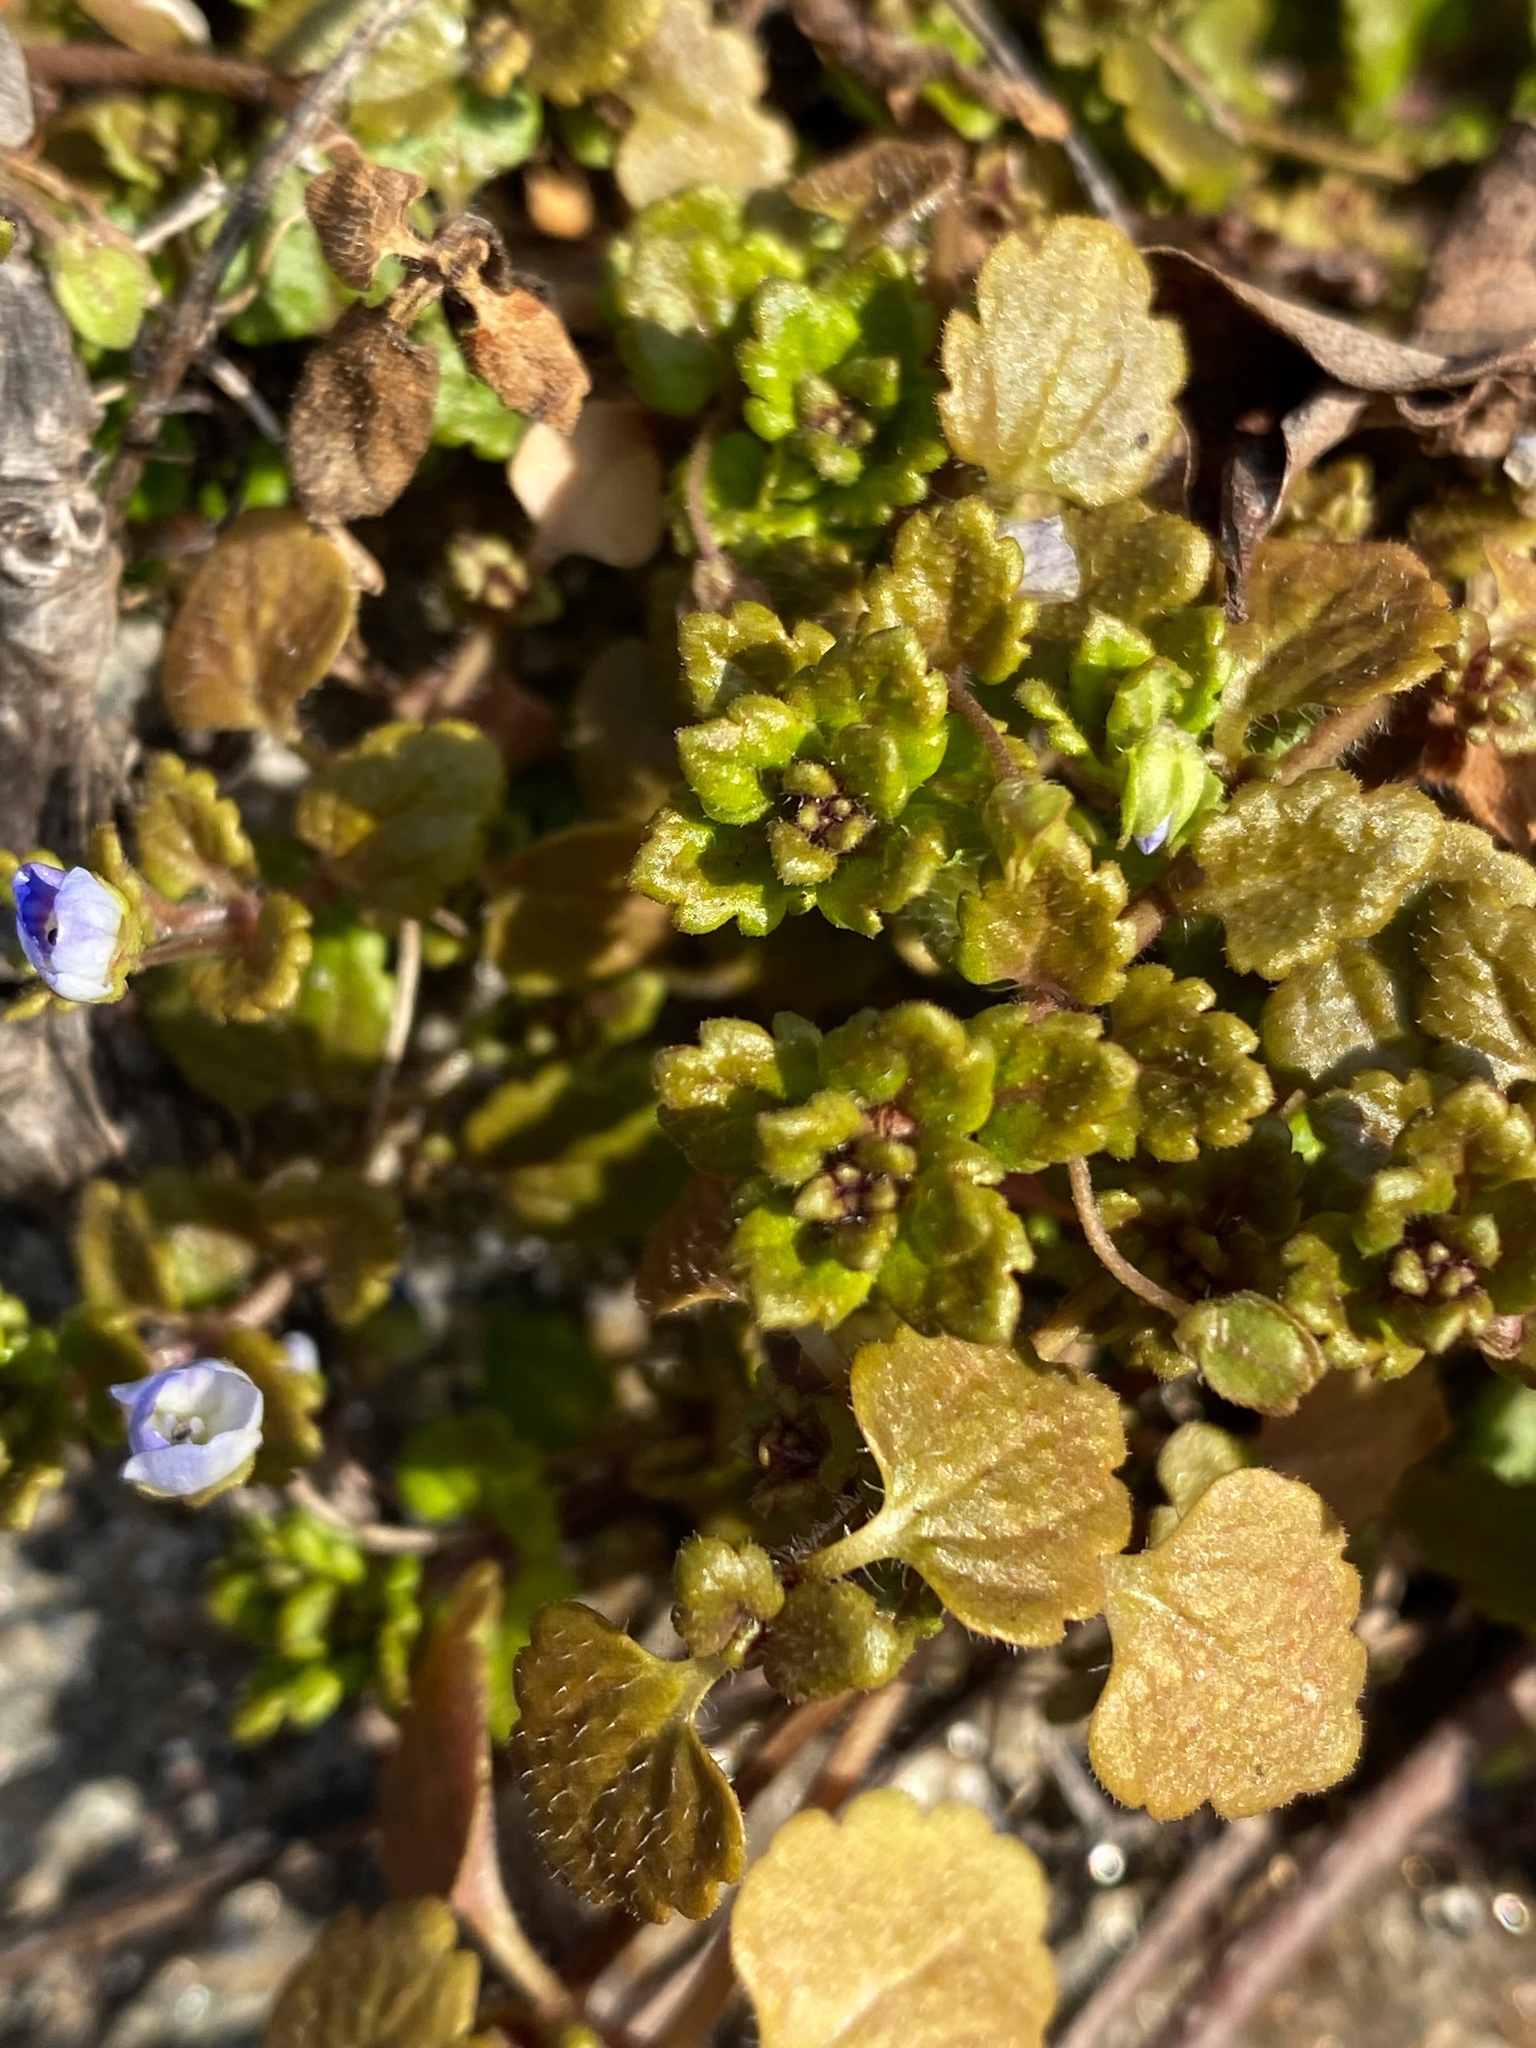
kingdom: Plantae
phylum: Tracheophyta
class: Magnoliopsida
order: Lamiales
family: Plantaginaceae
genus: Veronica
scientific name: Veronica polita
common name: Grey field-speedwell
